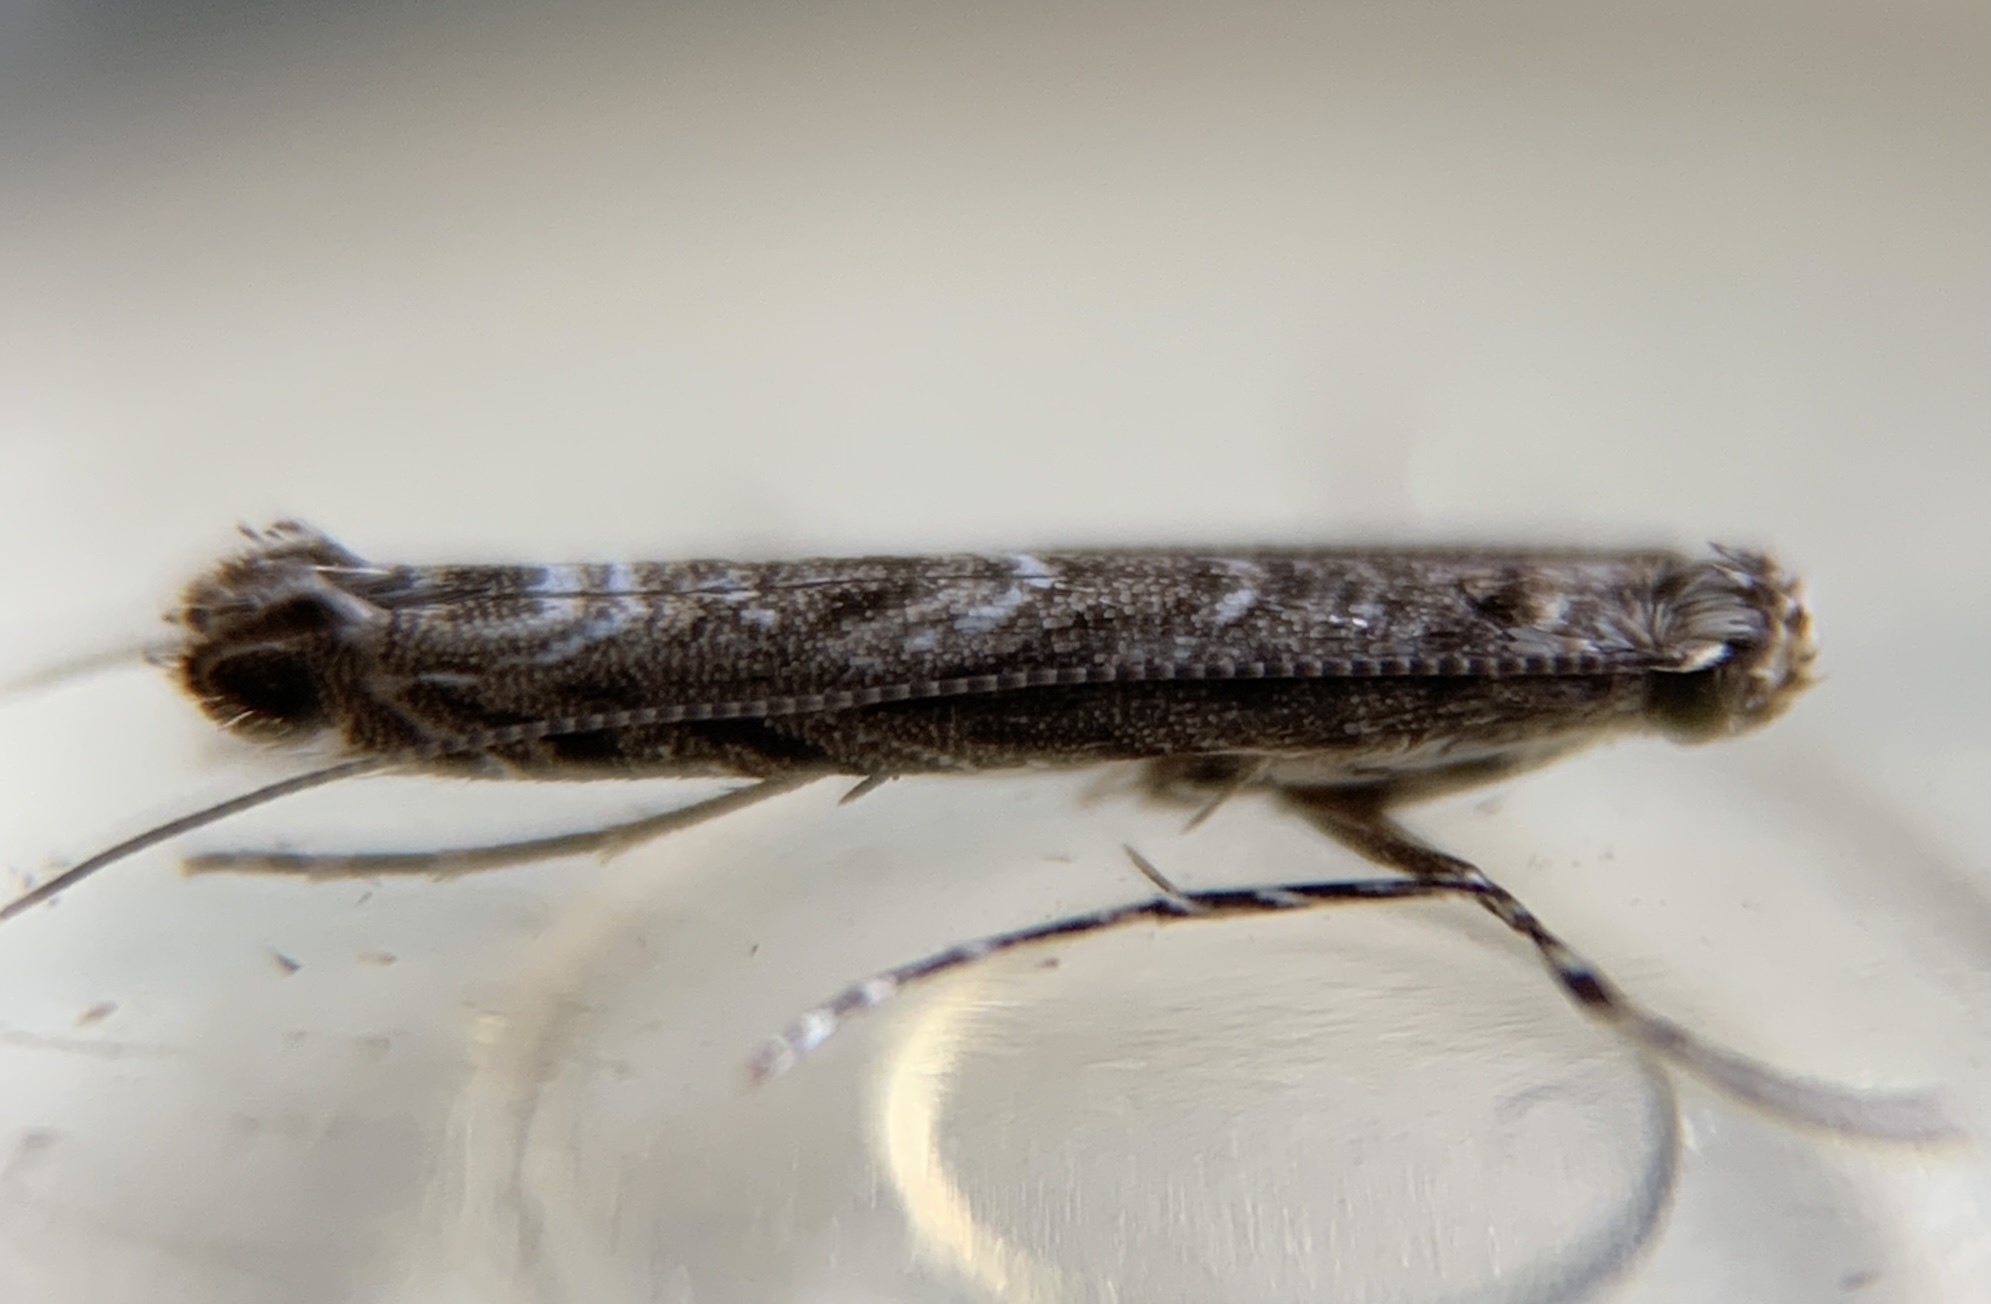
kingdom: Animalia
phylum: Arthropoda
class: Insecta
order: Lepidoptera
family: Gracillariidae
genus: Neurobathra
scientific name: Neurobathra strigifinitella
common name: Finite-channeled leafminer moth
